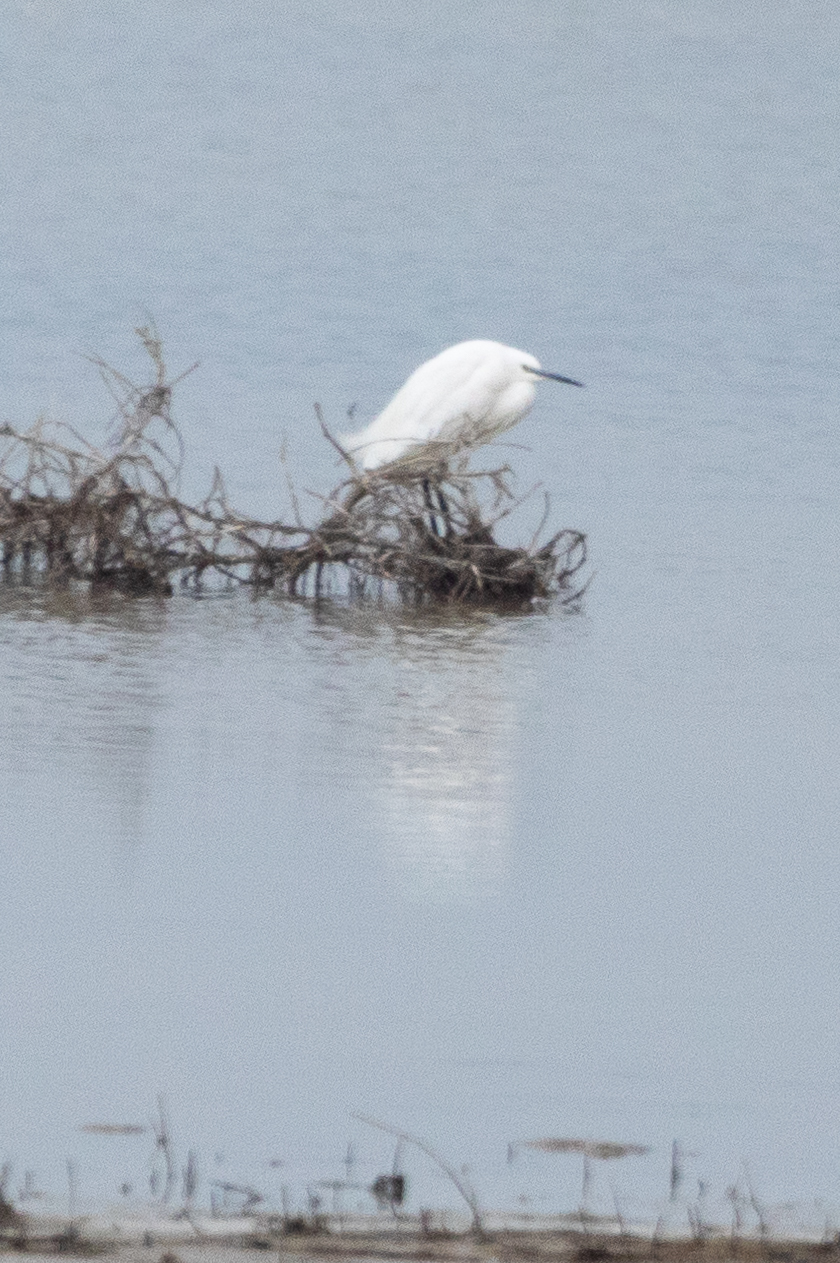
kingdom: Animalia
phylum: Chordata
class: Aves
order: Pelecaniformes
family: Ardeidae
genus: Egretta
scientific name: Egretta garzetta
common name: Little egret
